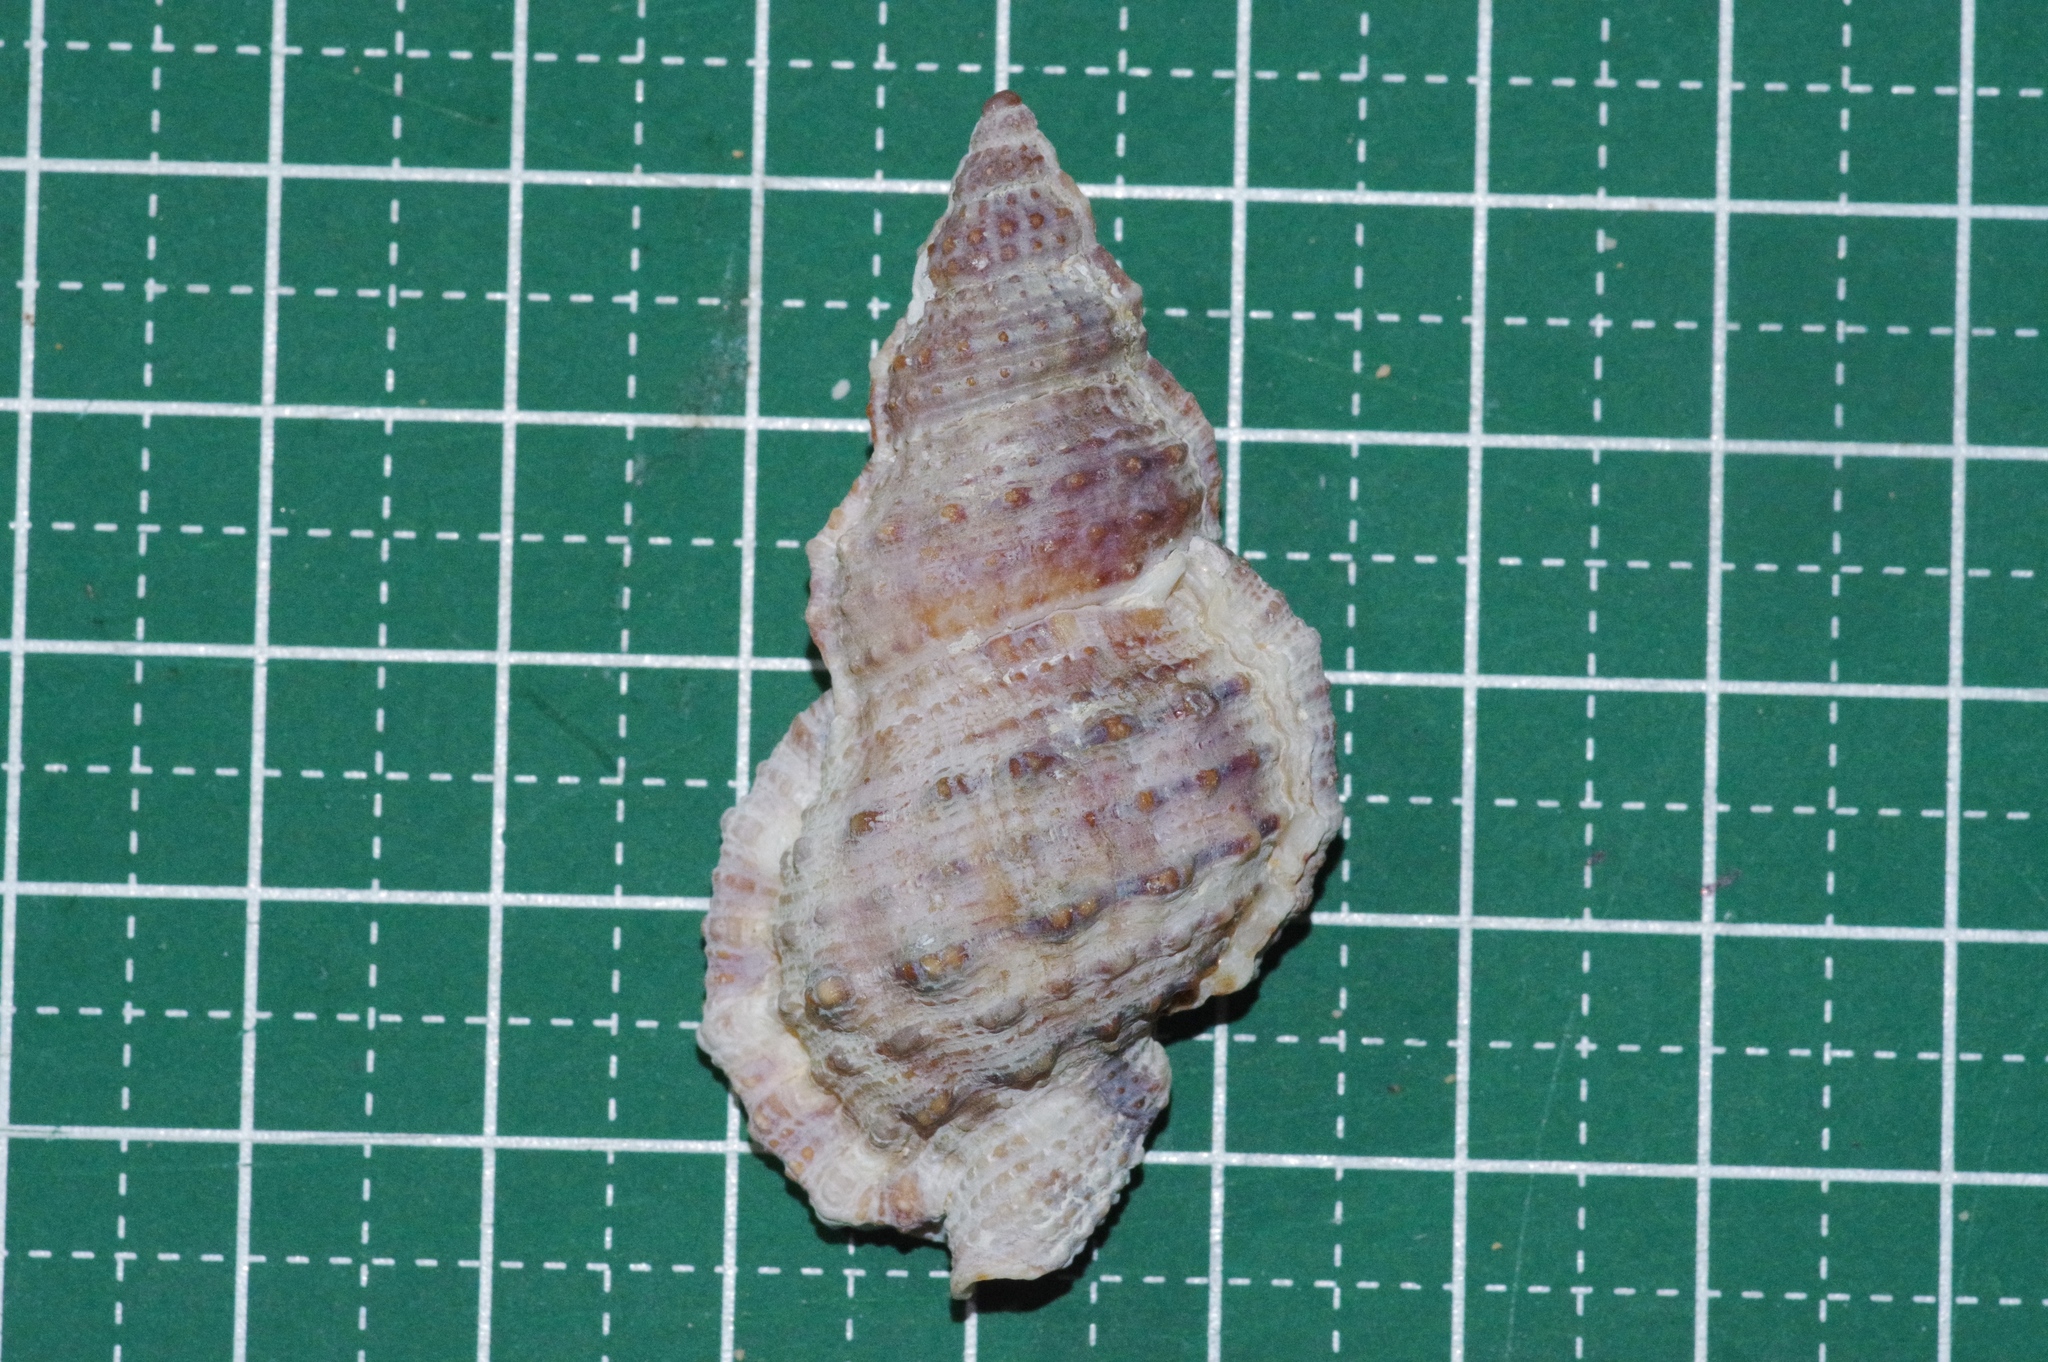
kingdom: Animalia
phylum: Mollusca
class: Gastropoda
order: Littorinimorpha
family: Bursidae
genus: Dulcerana
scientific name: Dulcerana granularis
